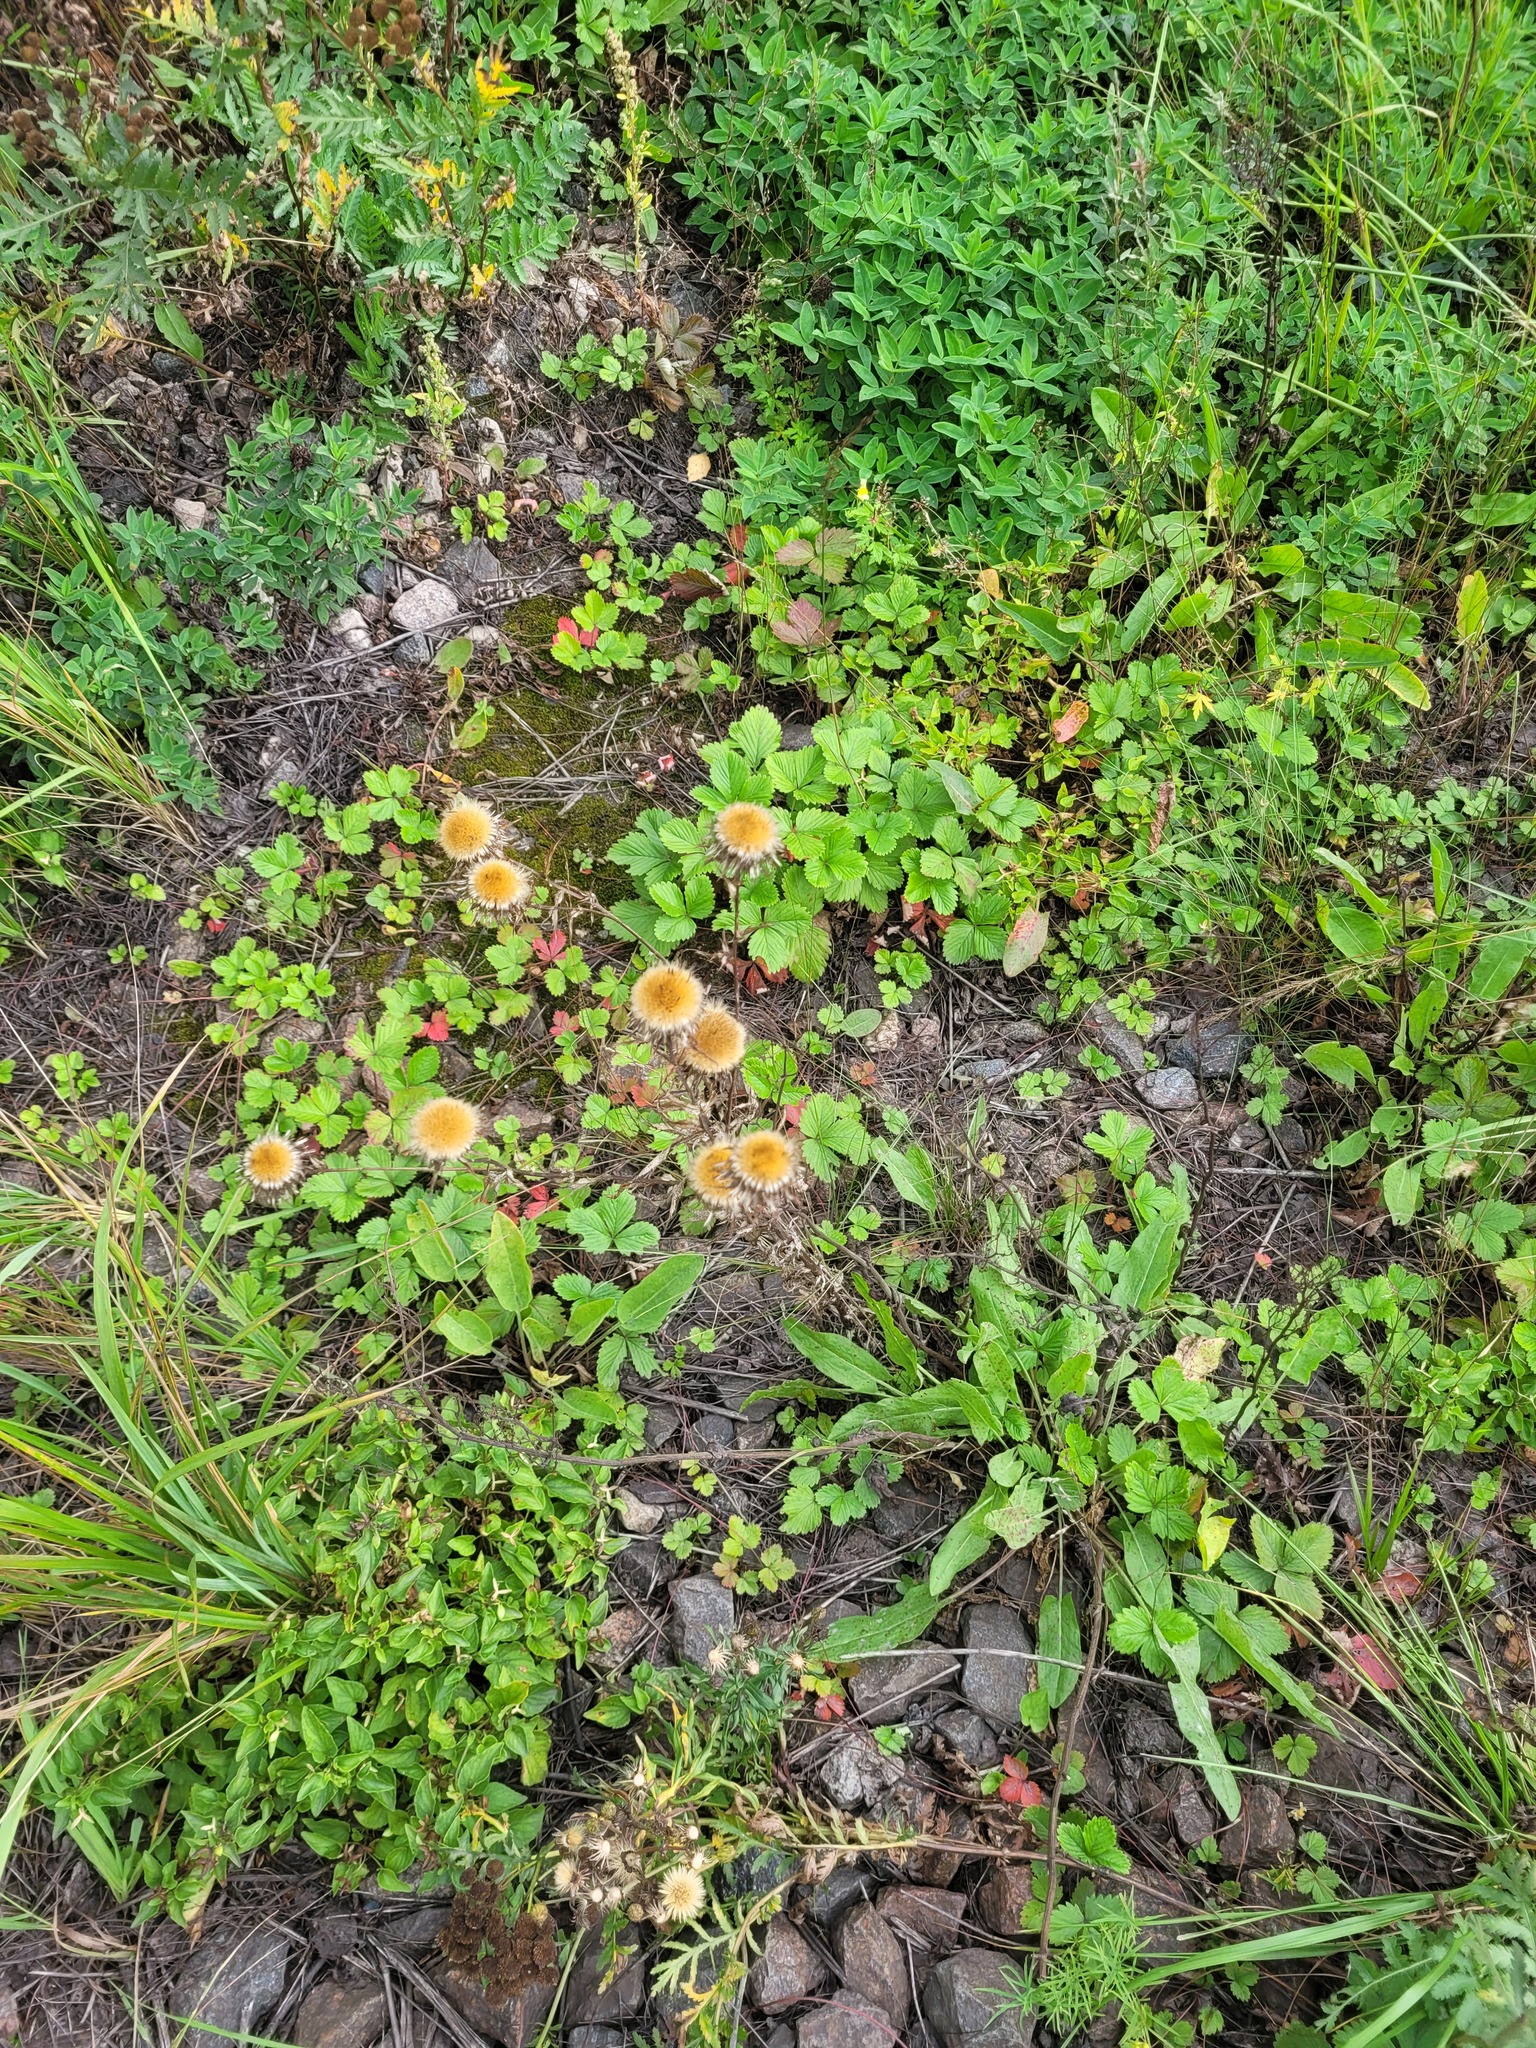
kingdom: Plantae
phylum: Tracheophyta
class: Magnoliopsida
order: Asterales
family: Asteraceae
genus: Carlina
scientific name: Carlina biebersteinii
